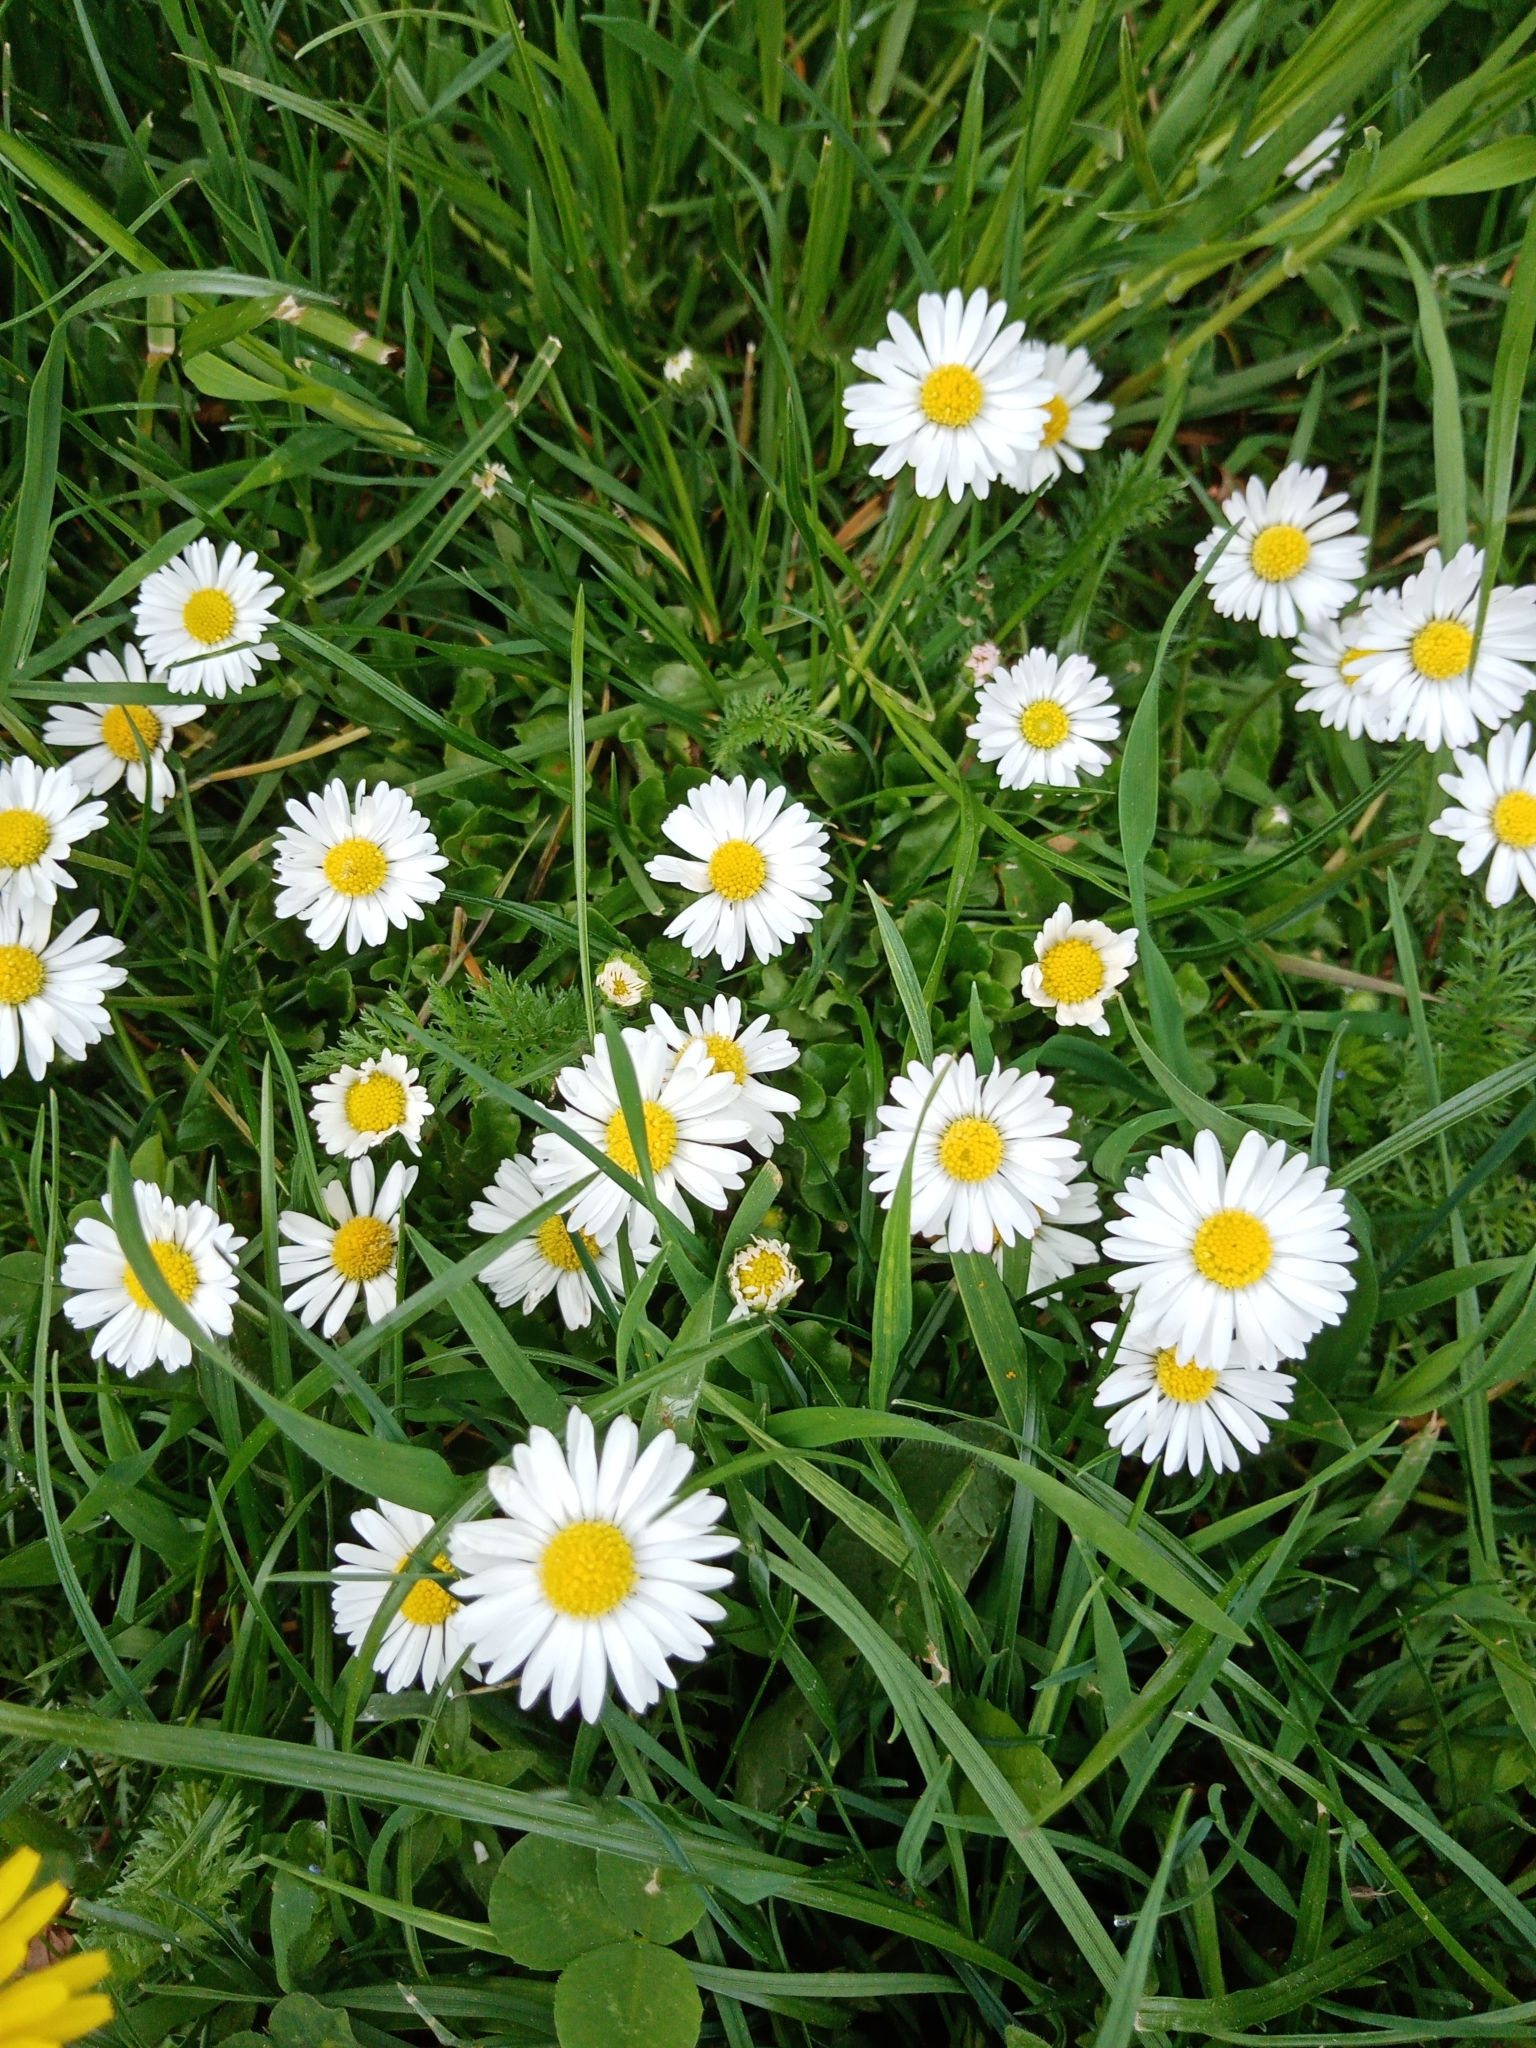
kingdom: Plantae
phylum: Tracheophyta
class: Magnoliopsida
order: Asterales
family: Asteraceae
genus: Bellis
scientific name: Bellis perennis
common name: Lawndaisy
